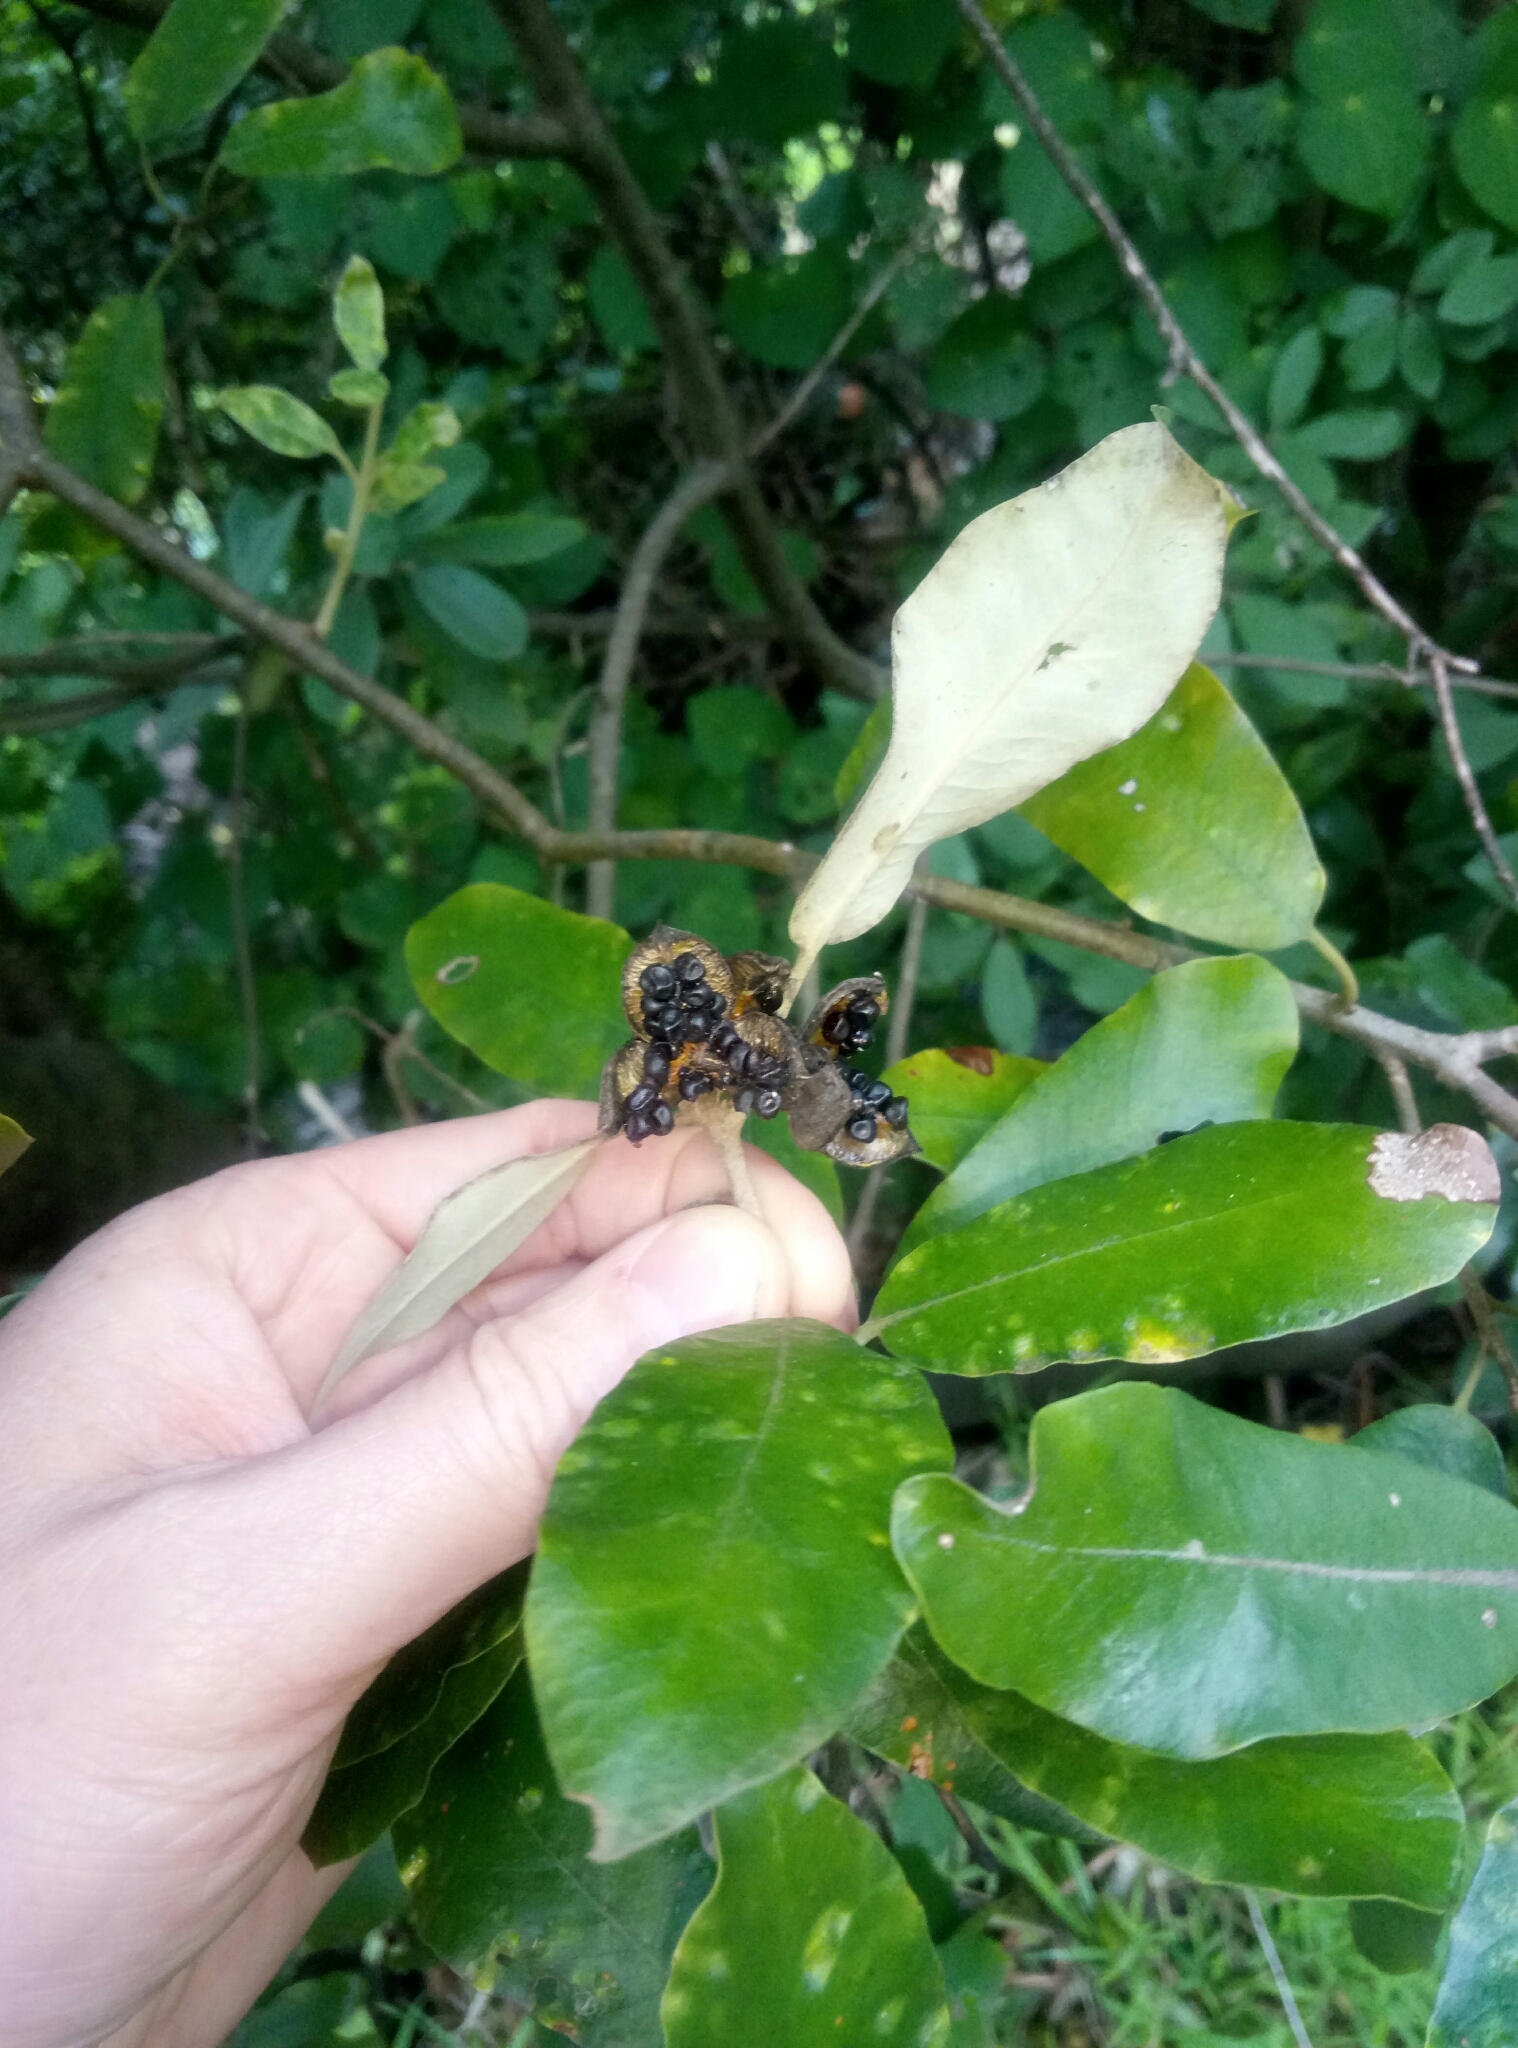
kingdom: Plantae
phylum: Tracheophyta
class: Magnoliopsida
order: Apiales
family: Pittosporaceae
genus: Pittosporum
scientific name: Pittosporum ralphii
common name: Ralph's desertwillow
